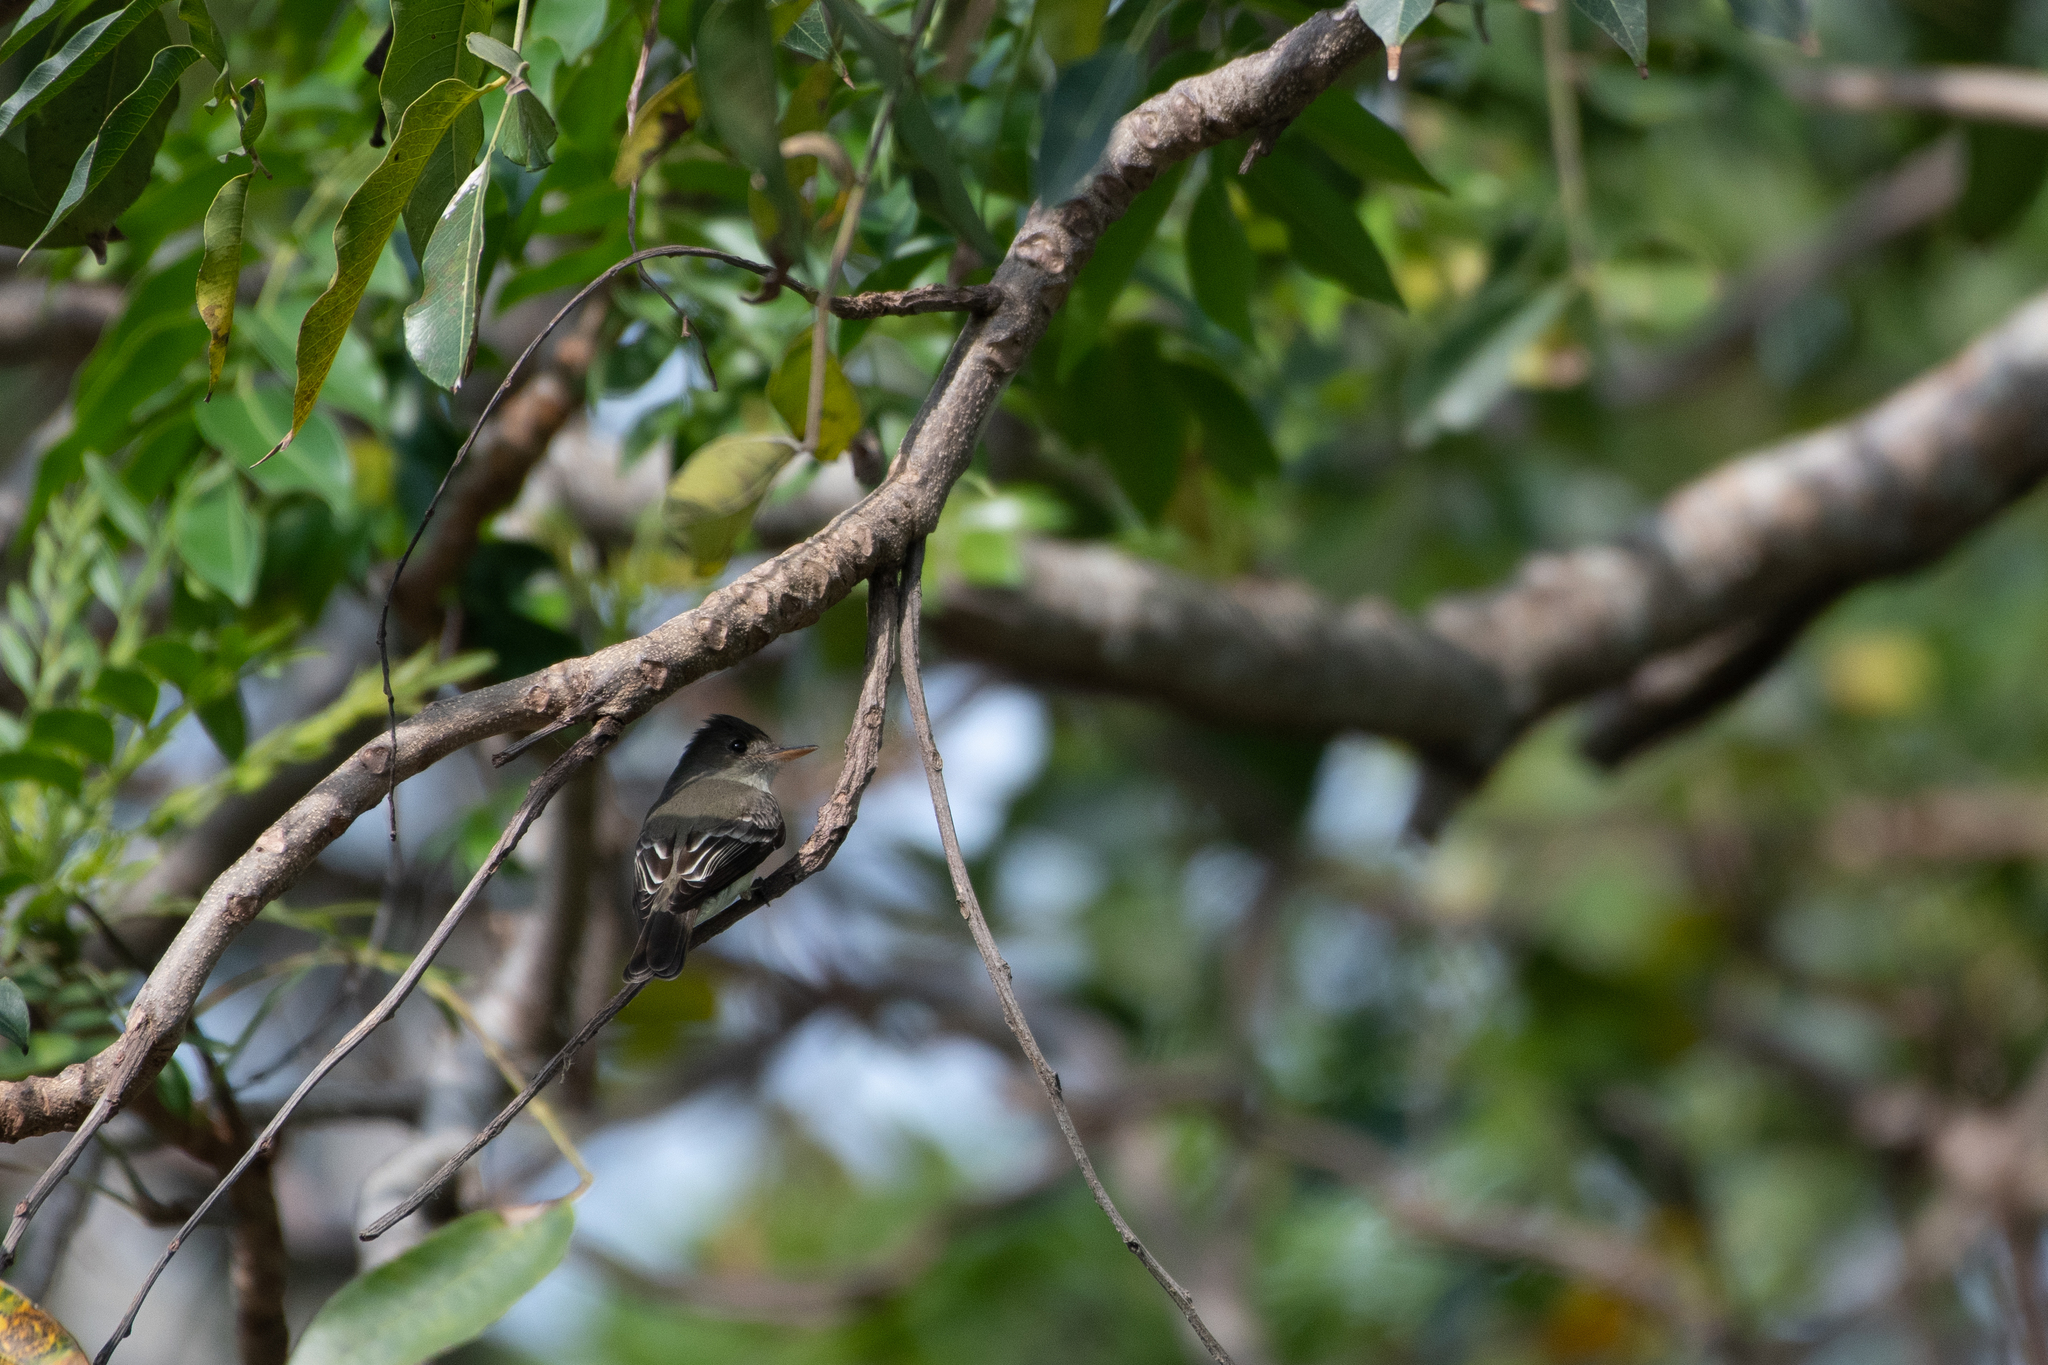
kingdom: Animalia
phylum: Chordata
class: Aves
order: Passeriformes
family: Tyrannidae
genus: Contopus
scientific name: Contopus virens
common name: Eastern wood-pewee
